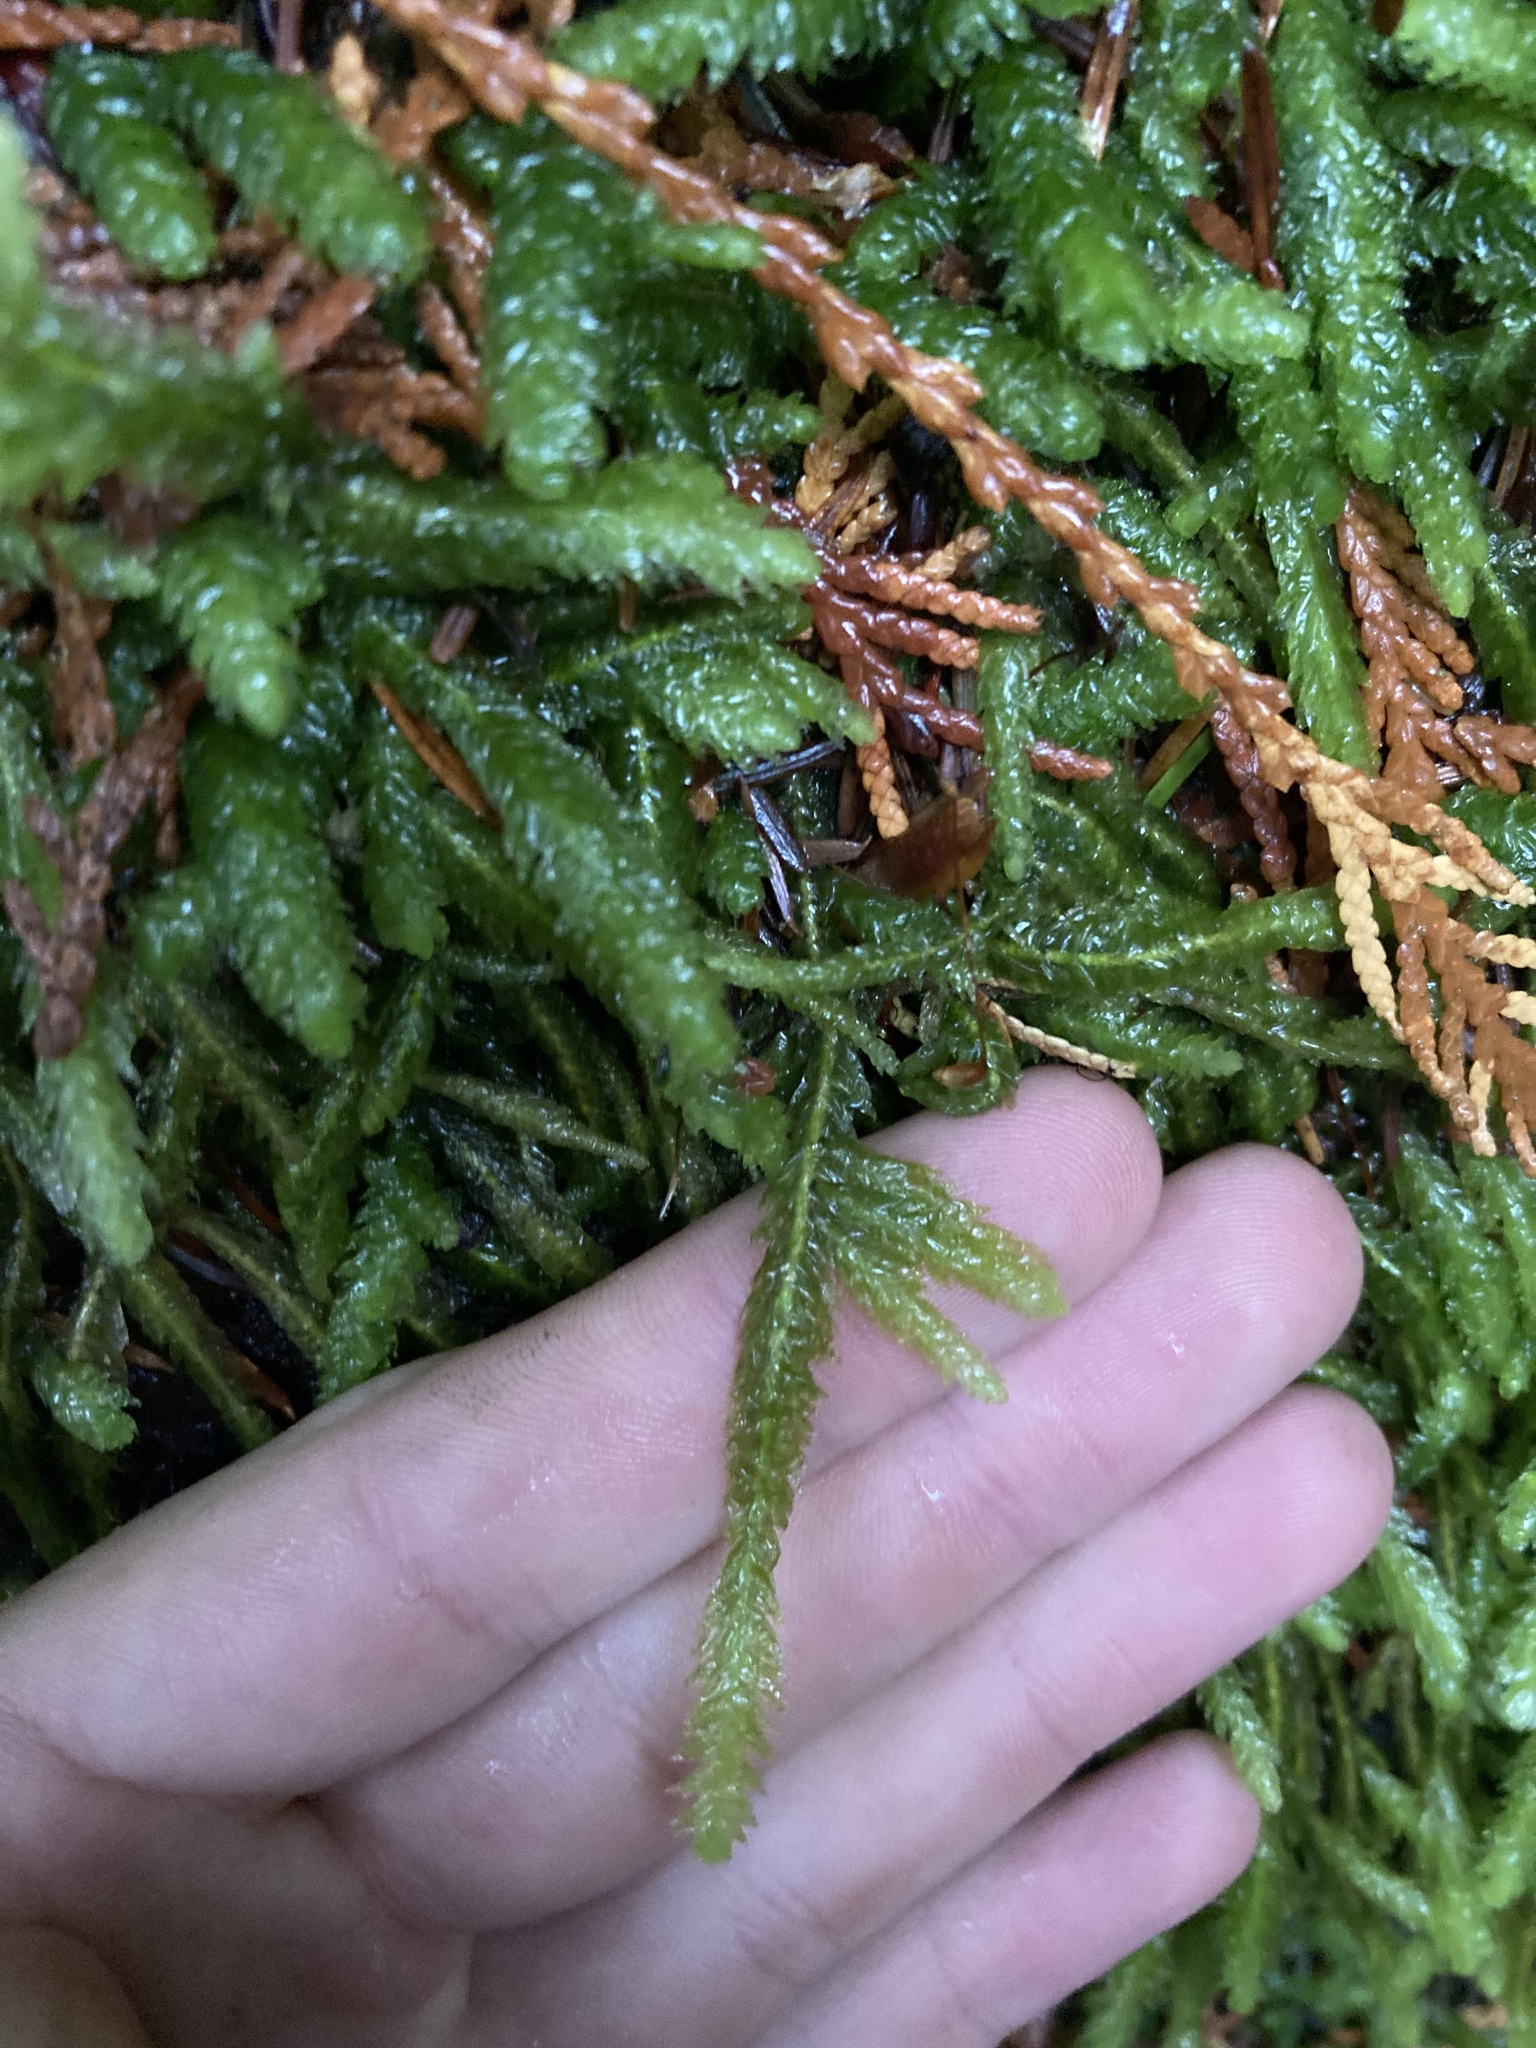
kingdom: Plantae
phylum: Bryophyta
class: Bryopsida
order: Hypnales
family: Plagiotheciaceae
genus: Plagiothecium
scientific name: Plagiothecium undulatum
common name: Waved silk-moss
